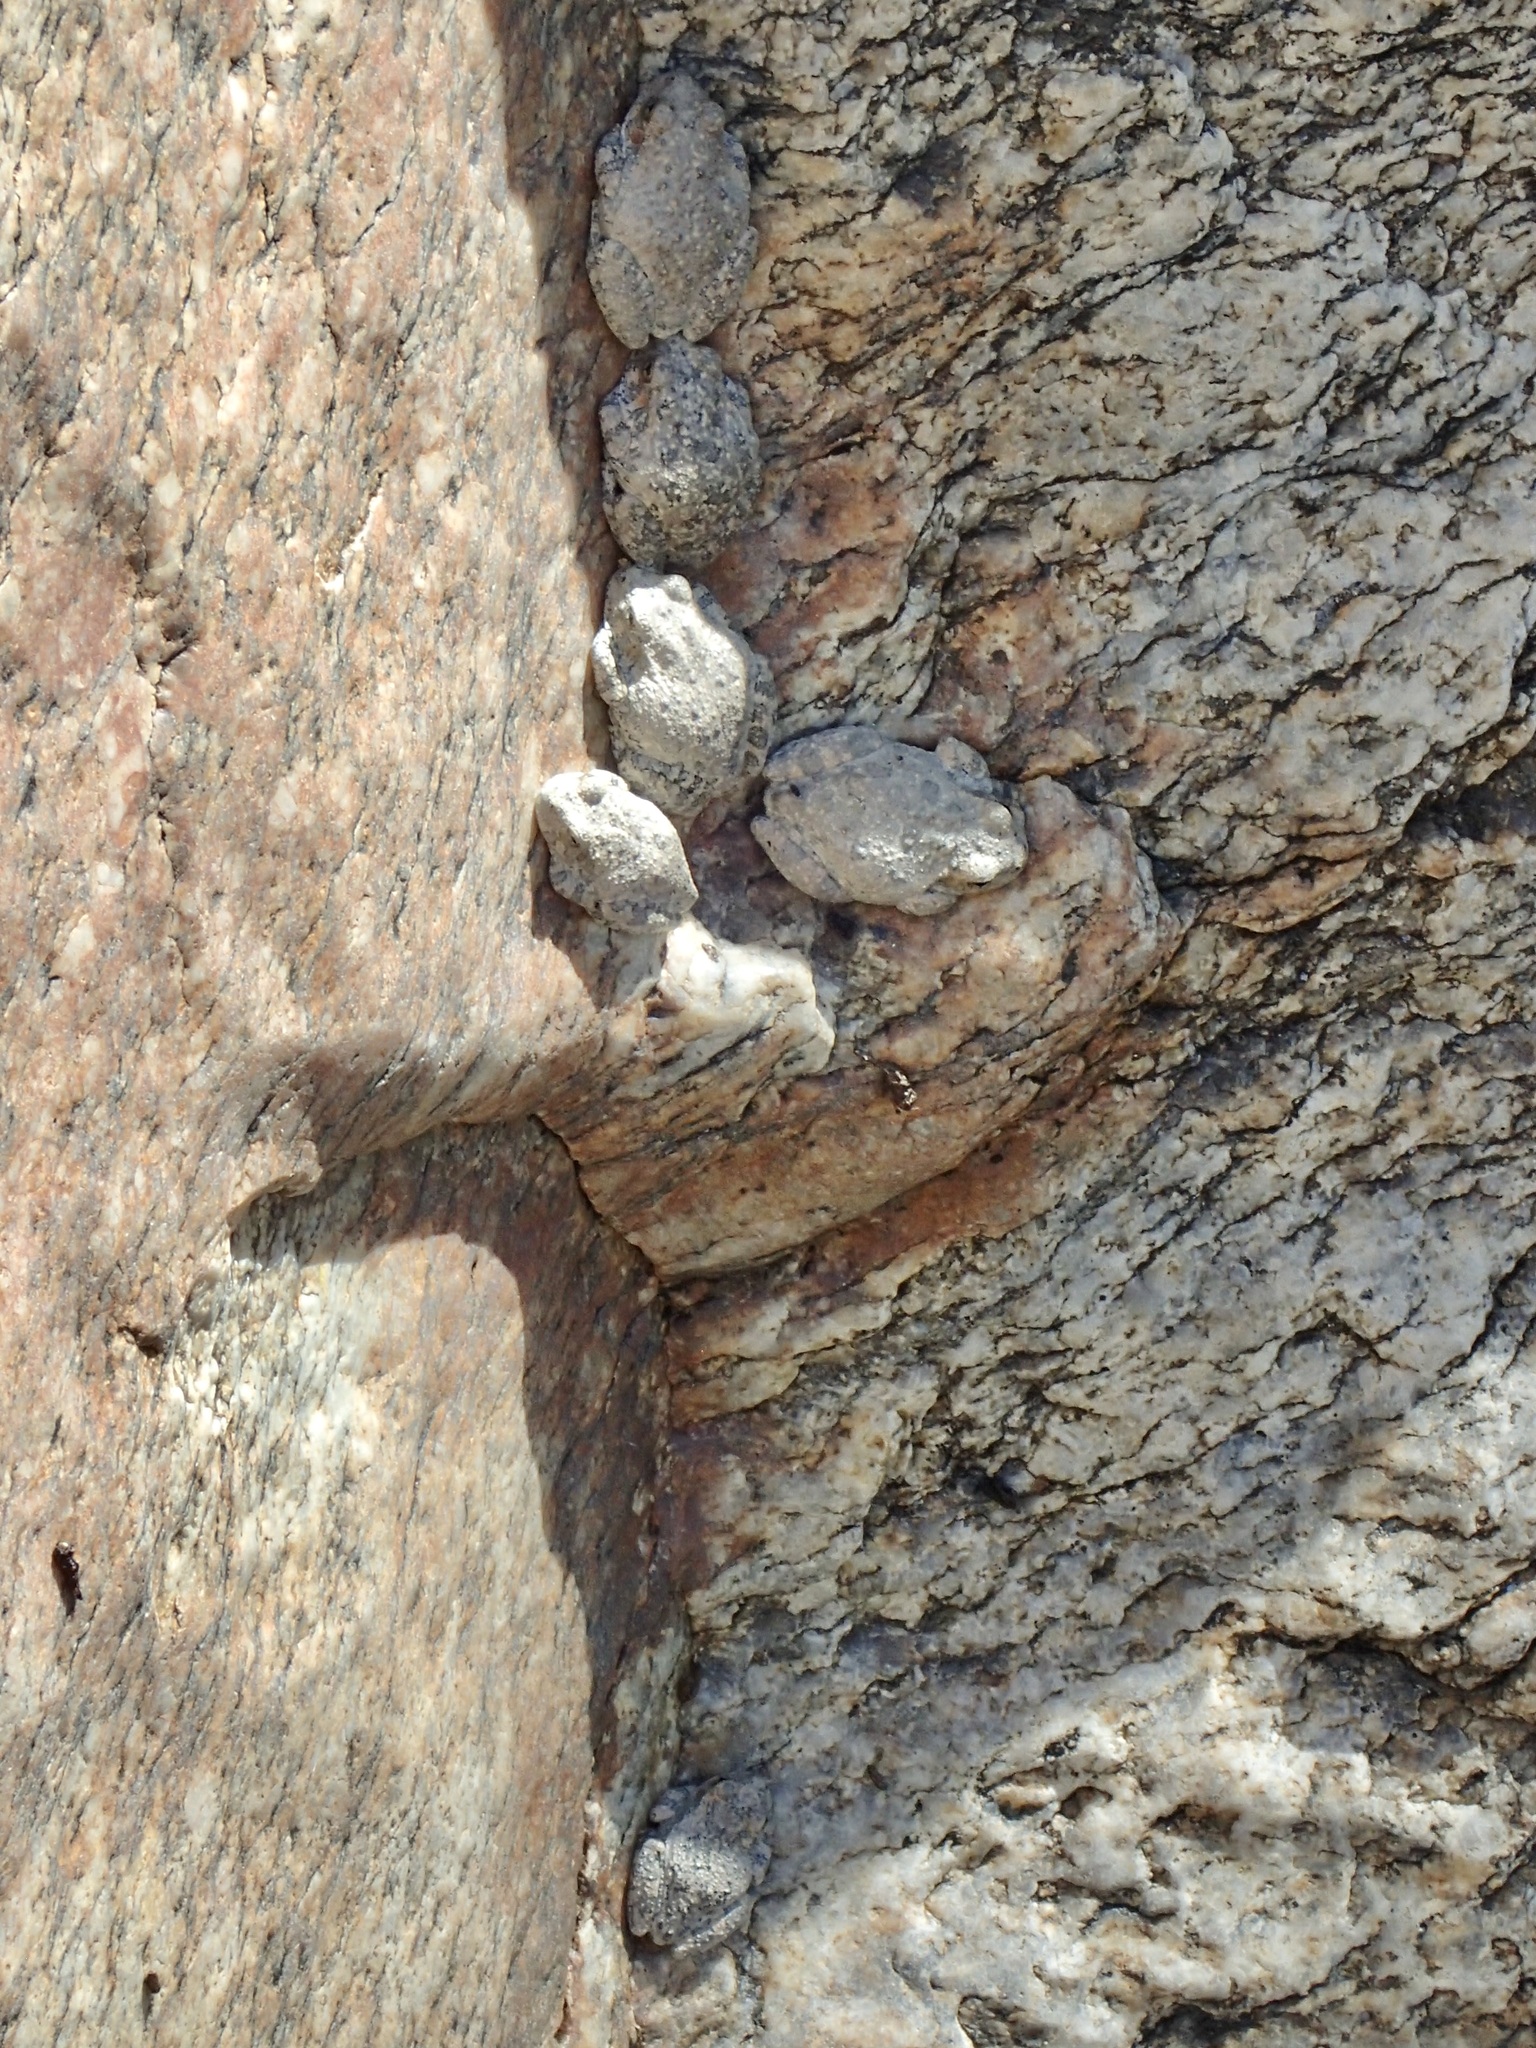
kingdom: Animalia
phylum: Chordata
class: Amphibia
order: Anura
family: Hylidae
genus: Dryophytes
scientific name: Dryophytes arenicolor
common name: Canyon treefrog
